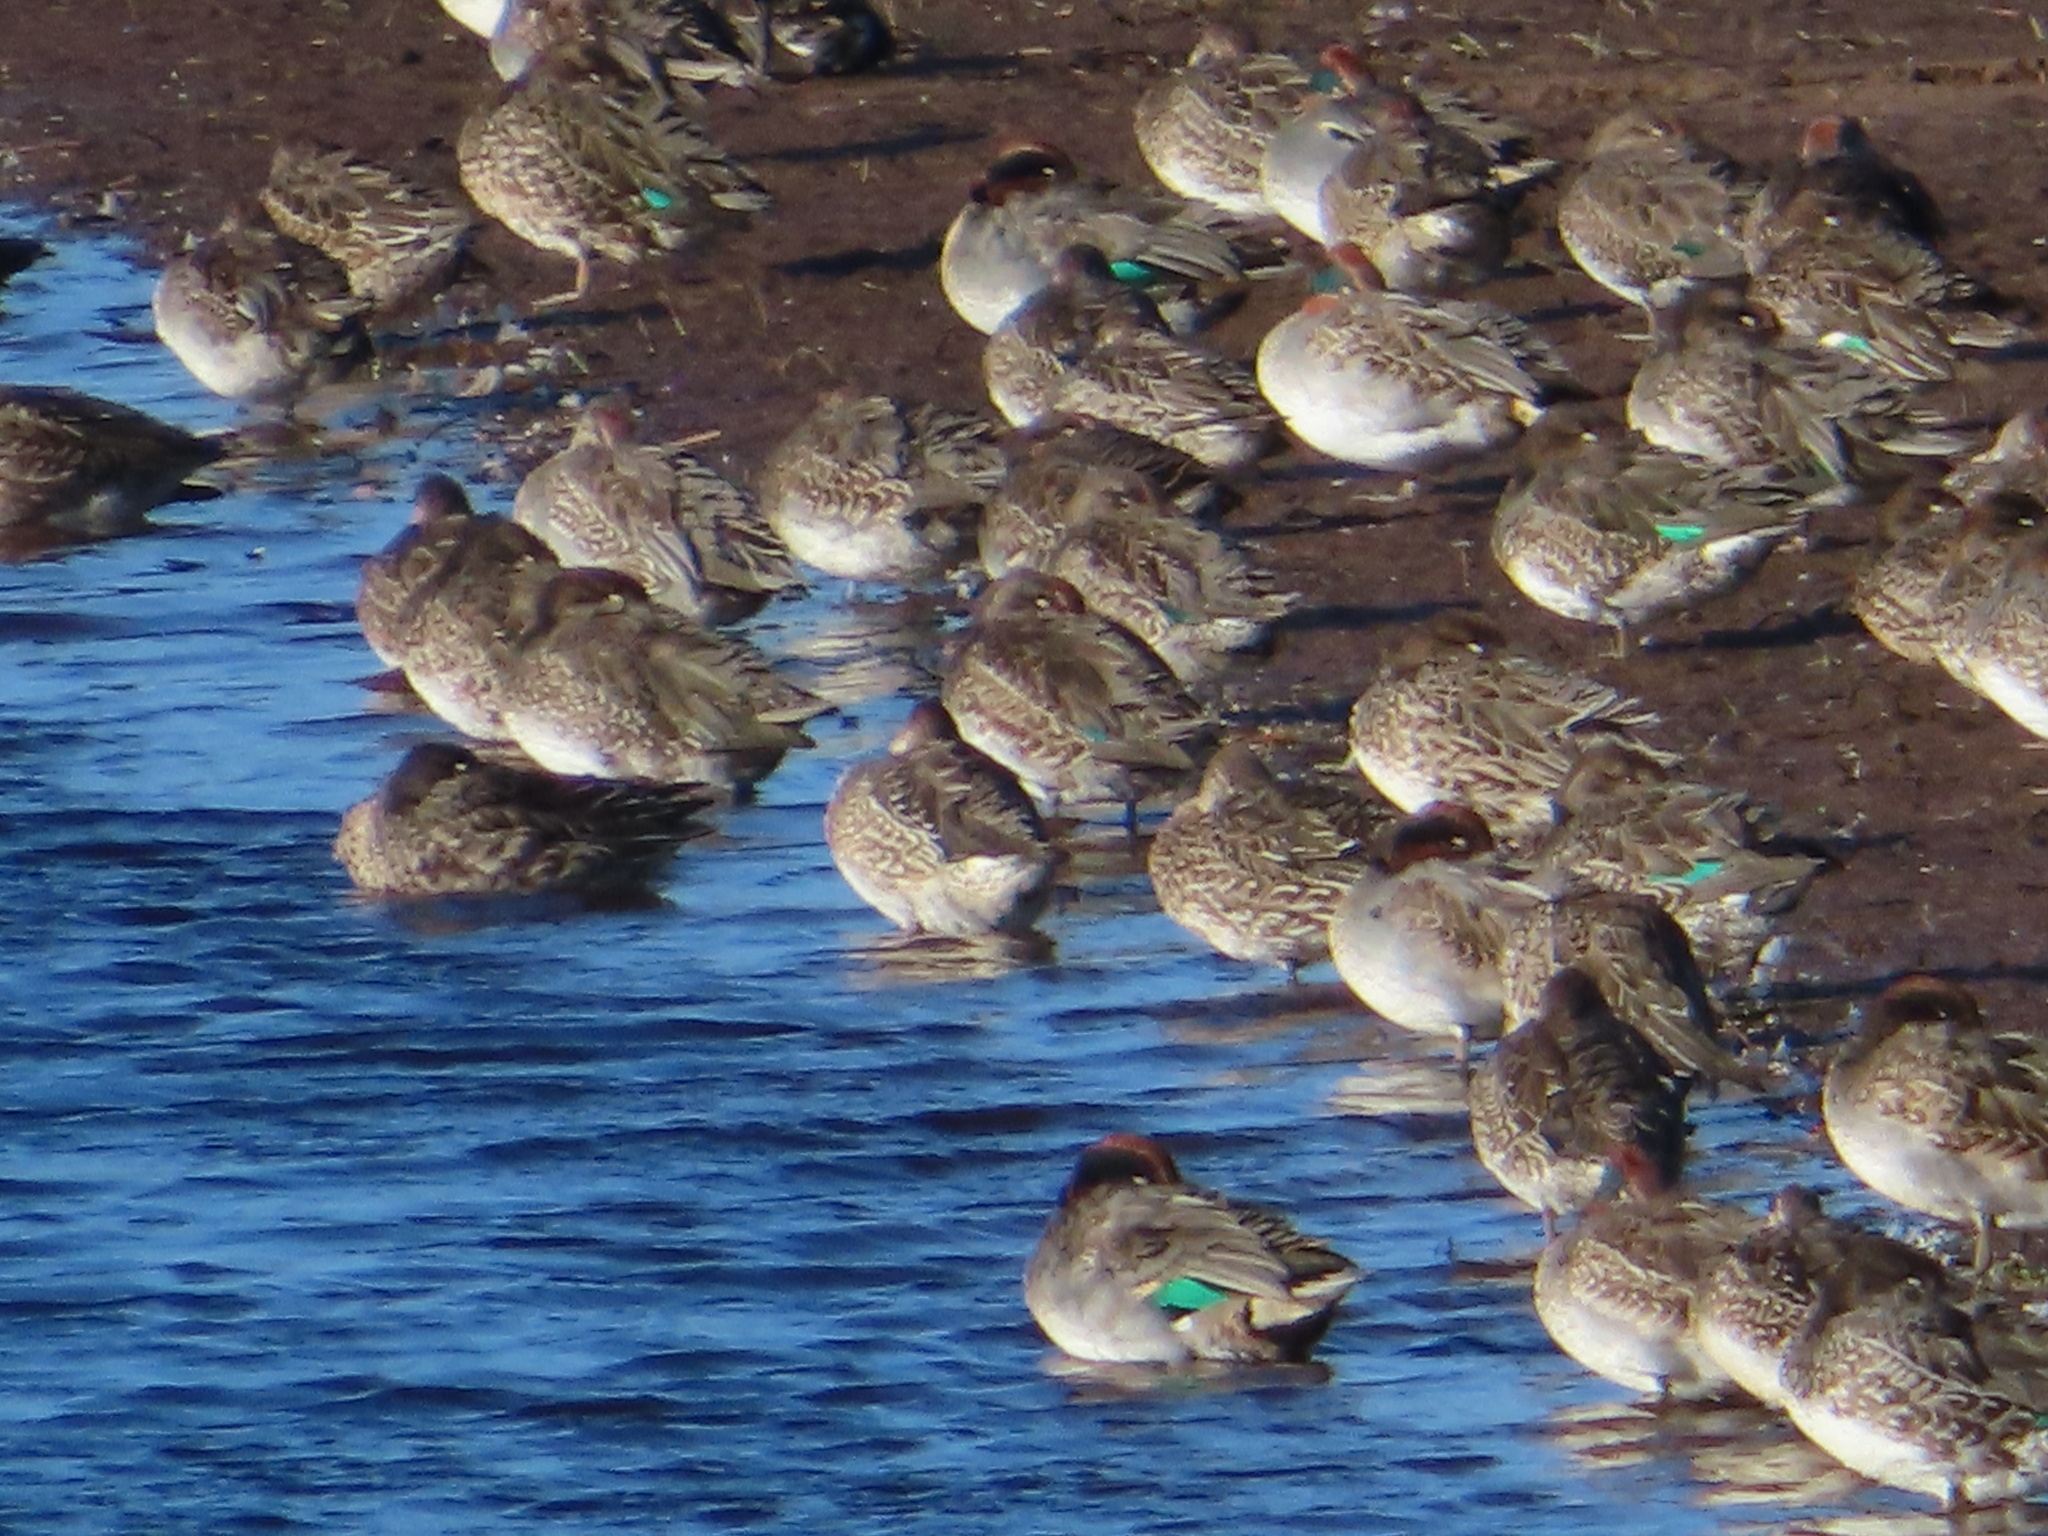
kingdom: Animalia
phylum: Chordata
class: Aves
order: Anseriformes
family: Anatidae
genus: Anas
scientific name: Anas crecca
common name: Eurasian teal
